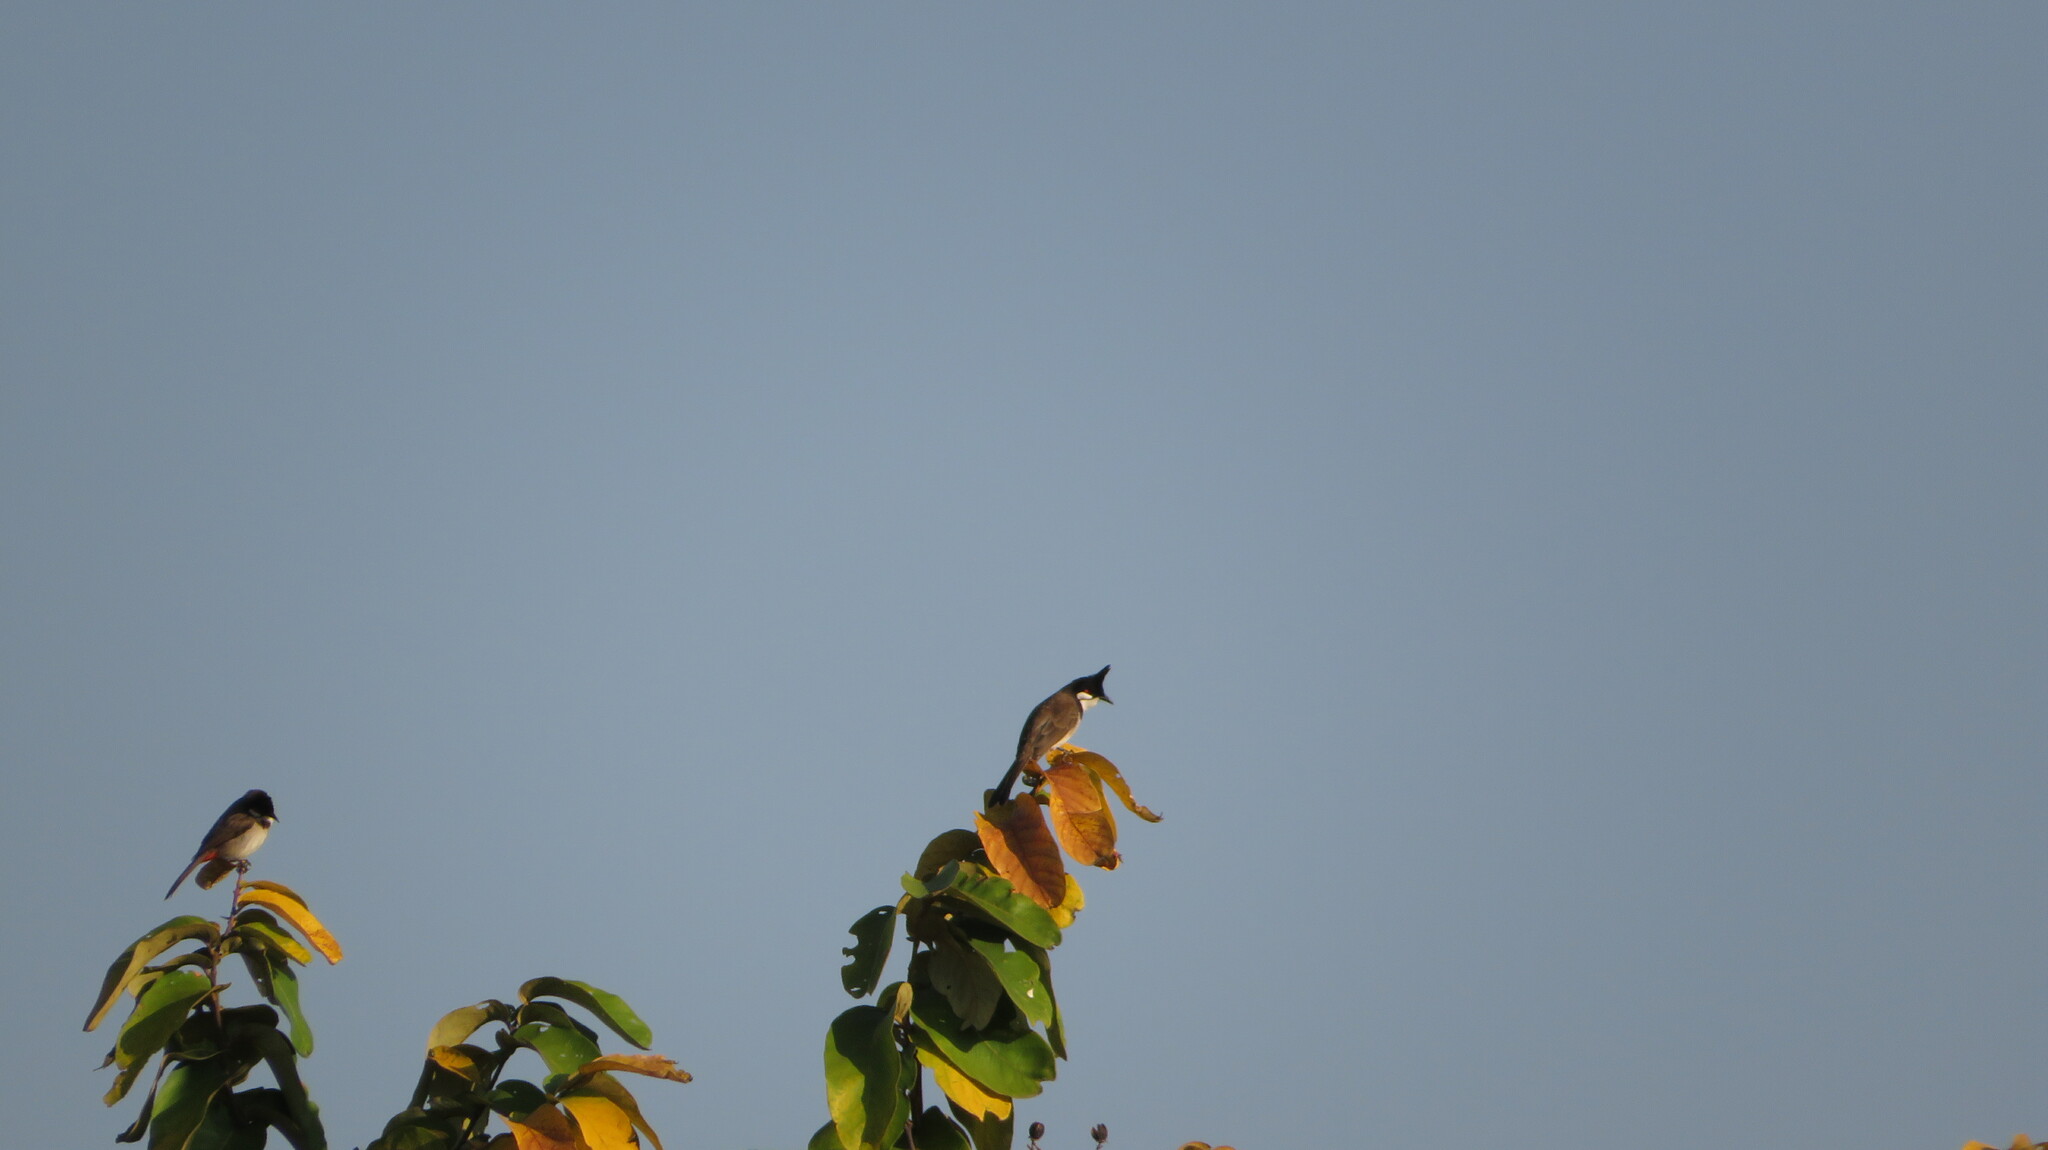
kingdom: Animalia
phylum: Chordata
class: Aves
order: Passeriformes
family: Pycnonotidae
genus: Pycnonotus
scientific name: Pycnonotus jocosus
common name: Red-whiskered bulbul
